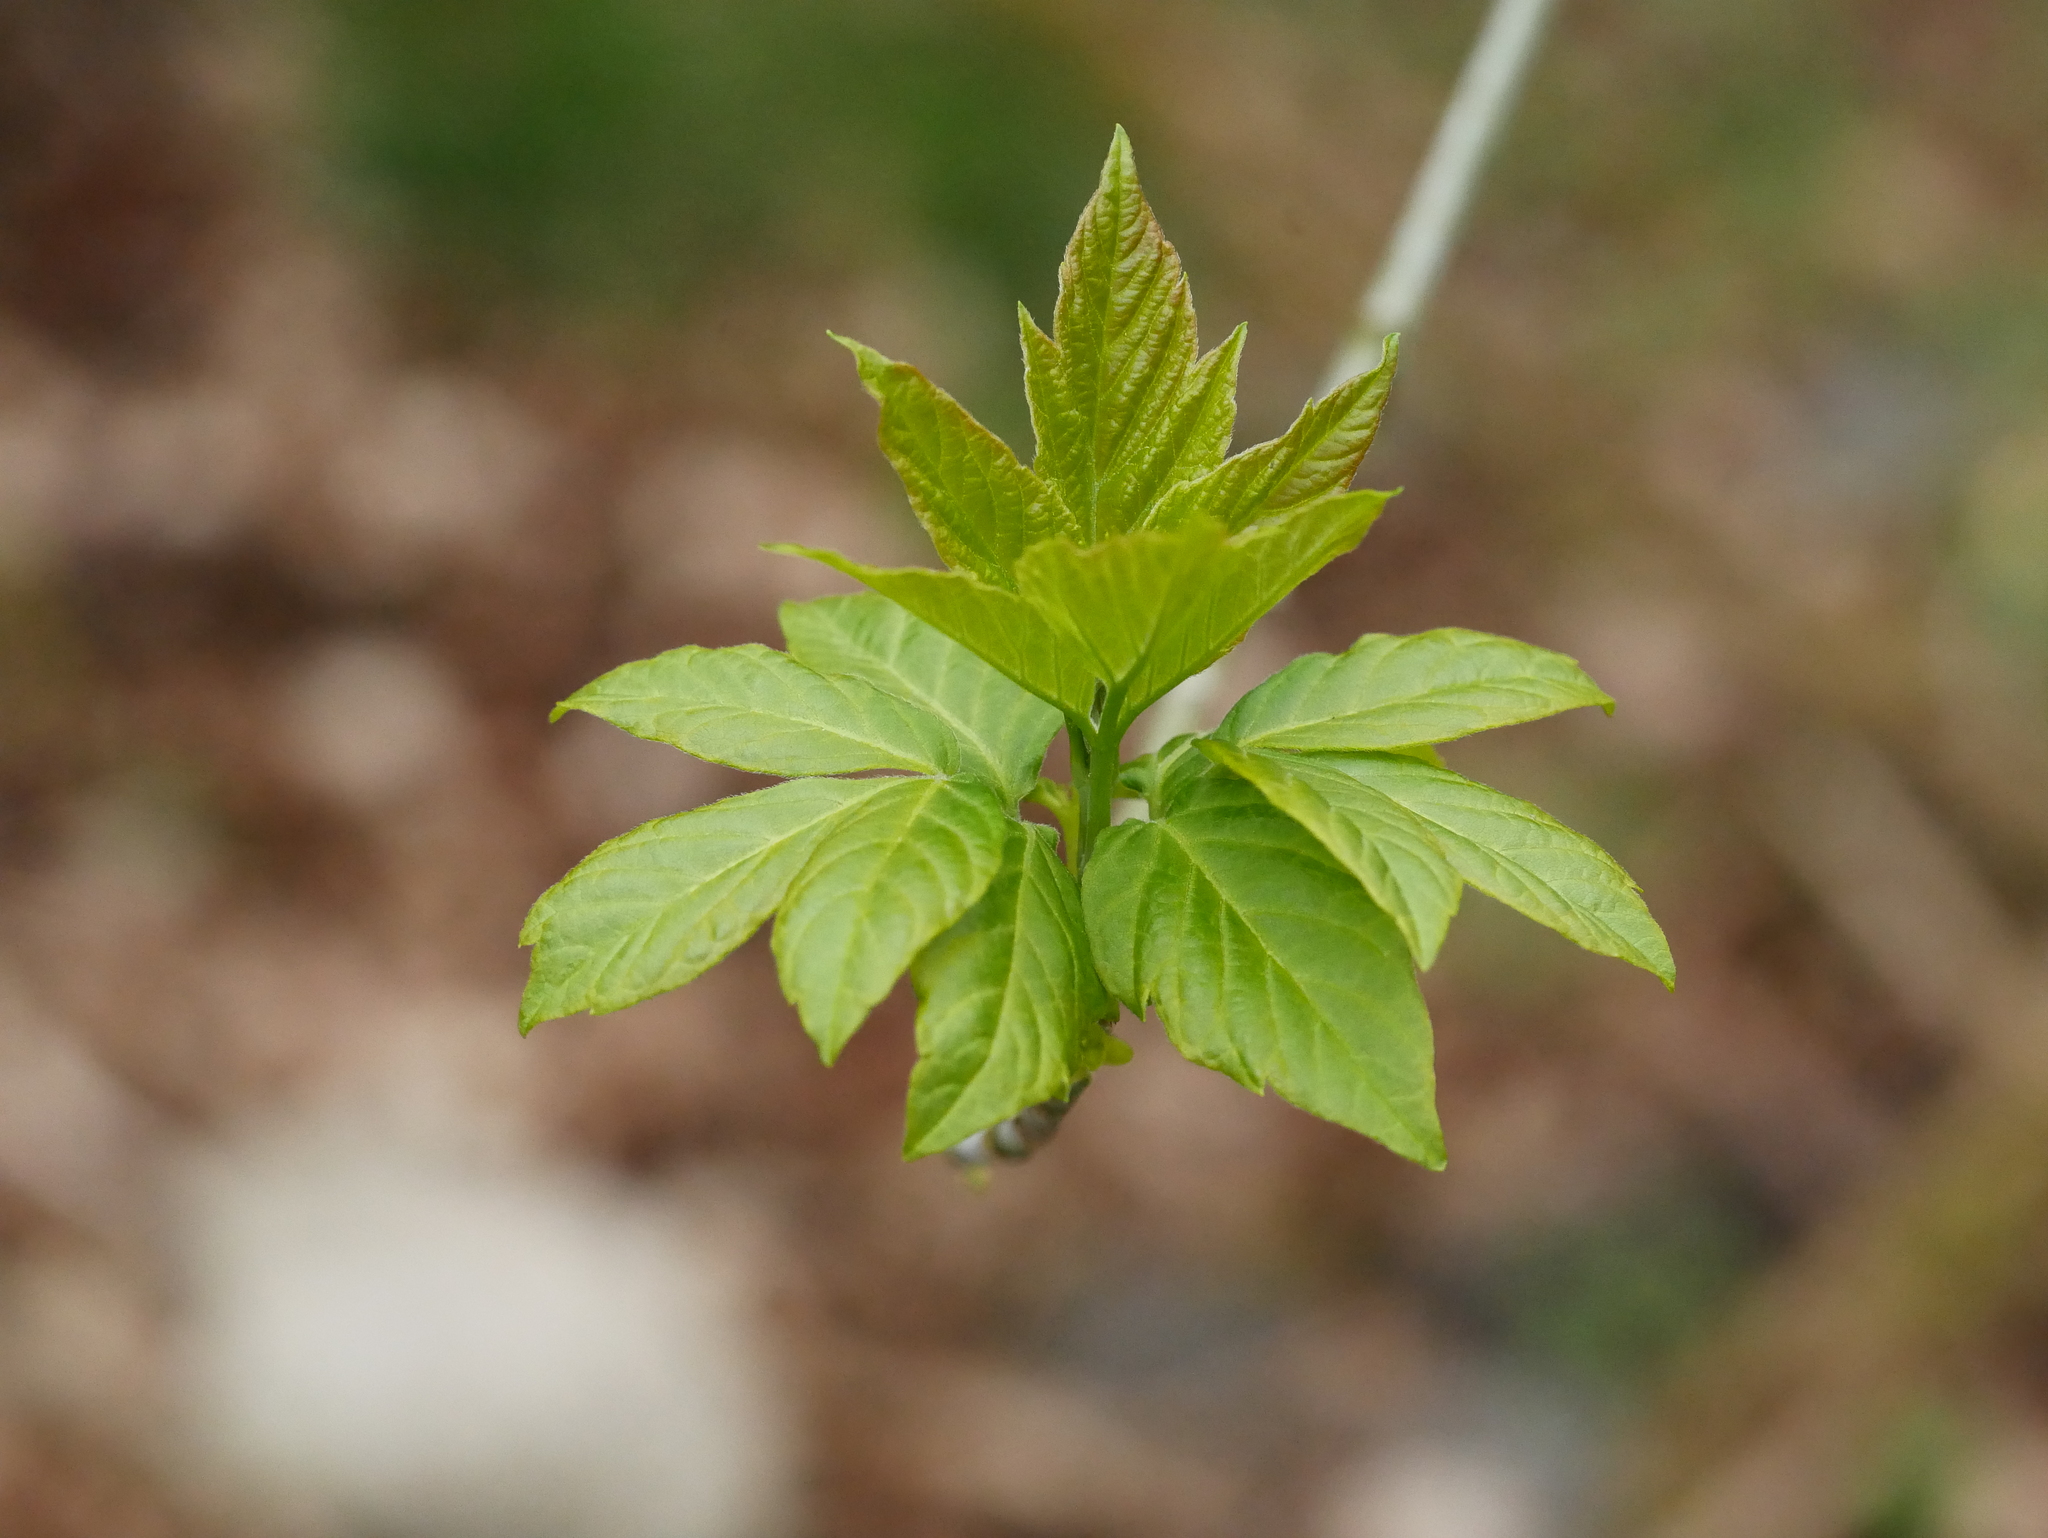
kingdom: Plantae
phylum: Tracheophyta
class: Magnoliopsida
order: Sapindales
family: Sapindaceae
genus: Acer
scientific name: Acer negundo
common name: Ashleaf maple
